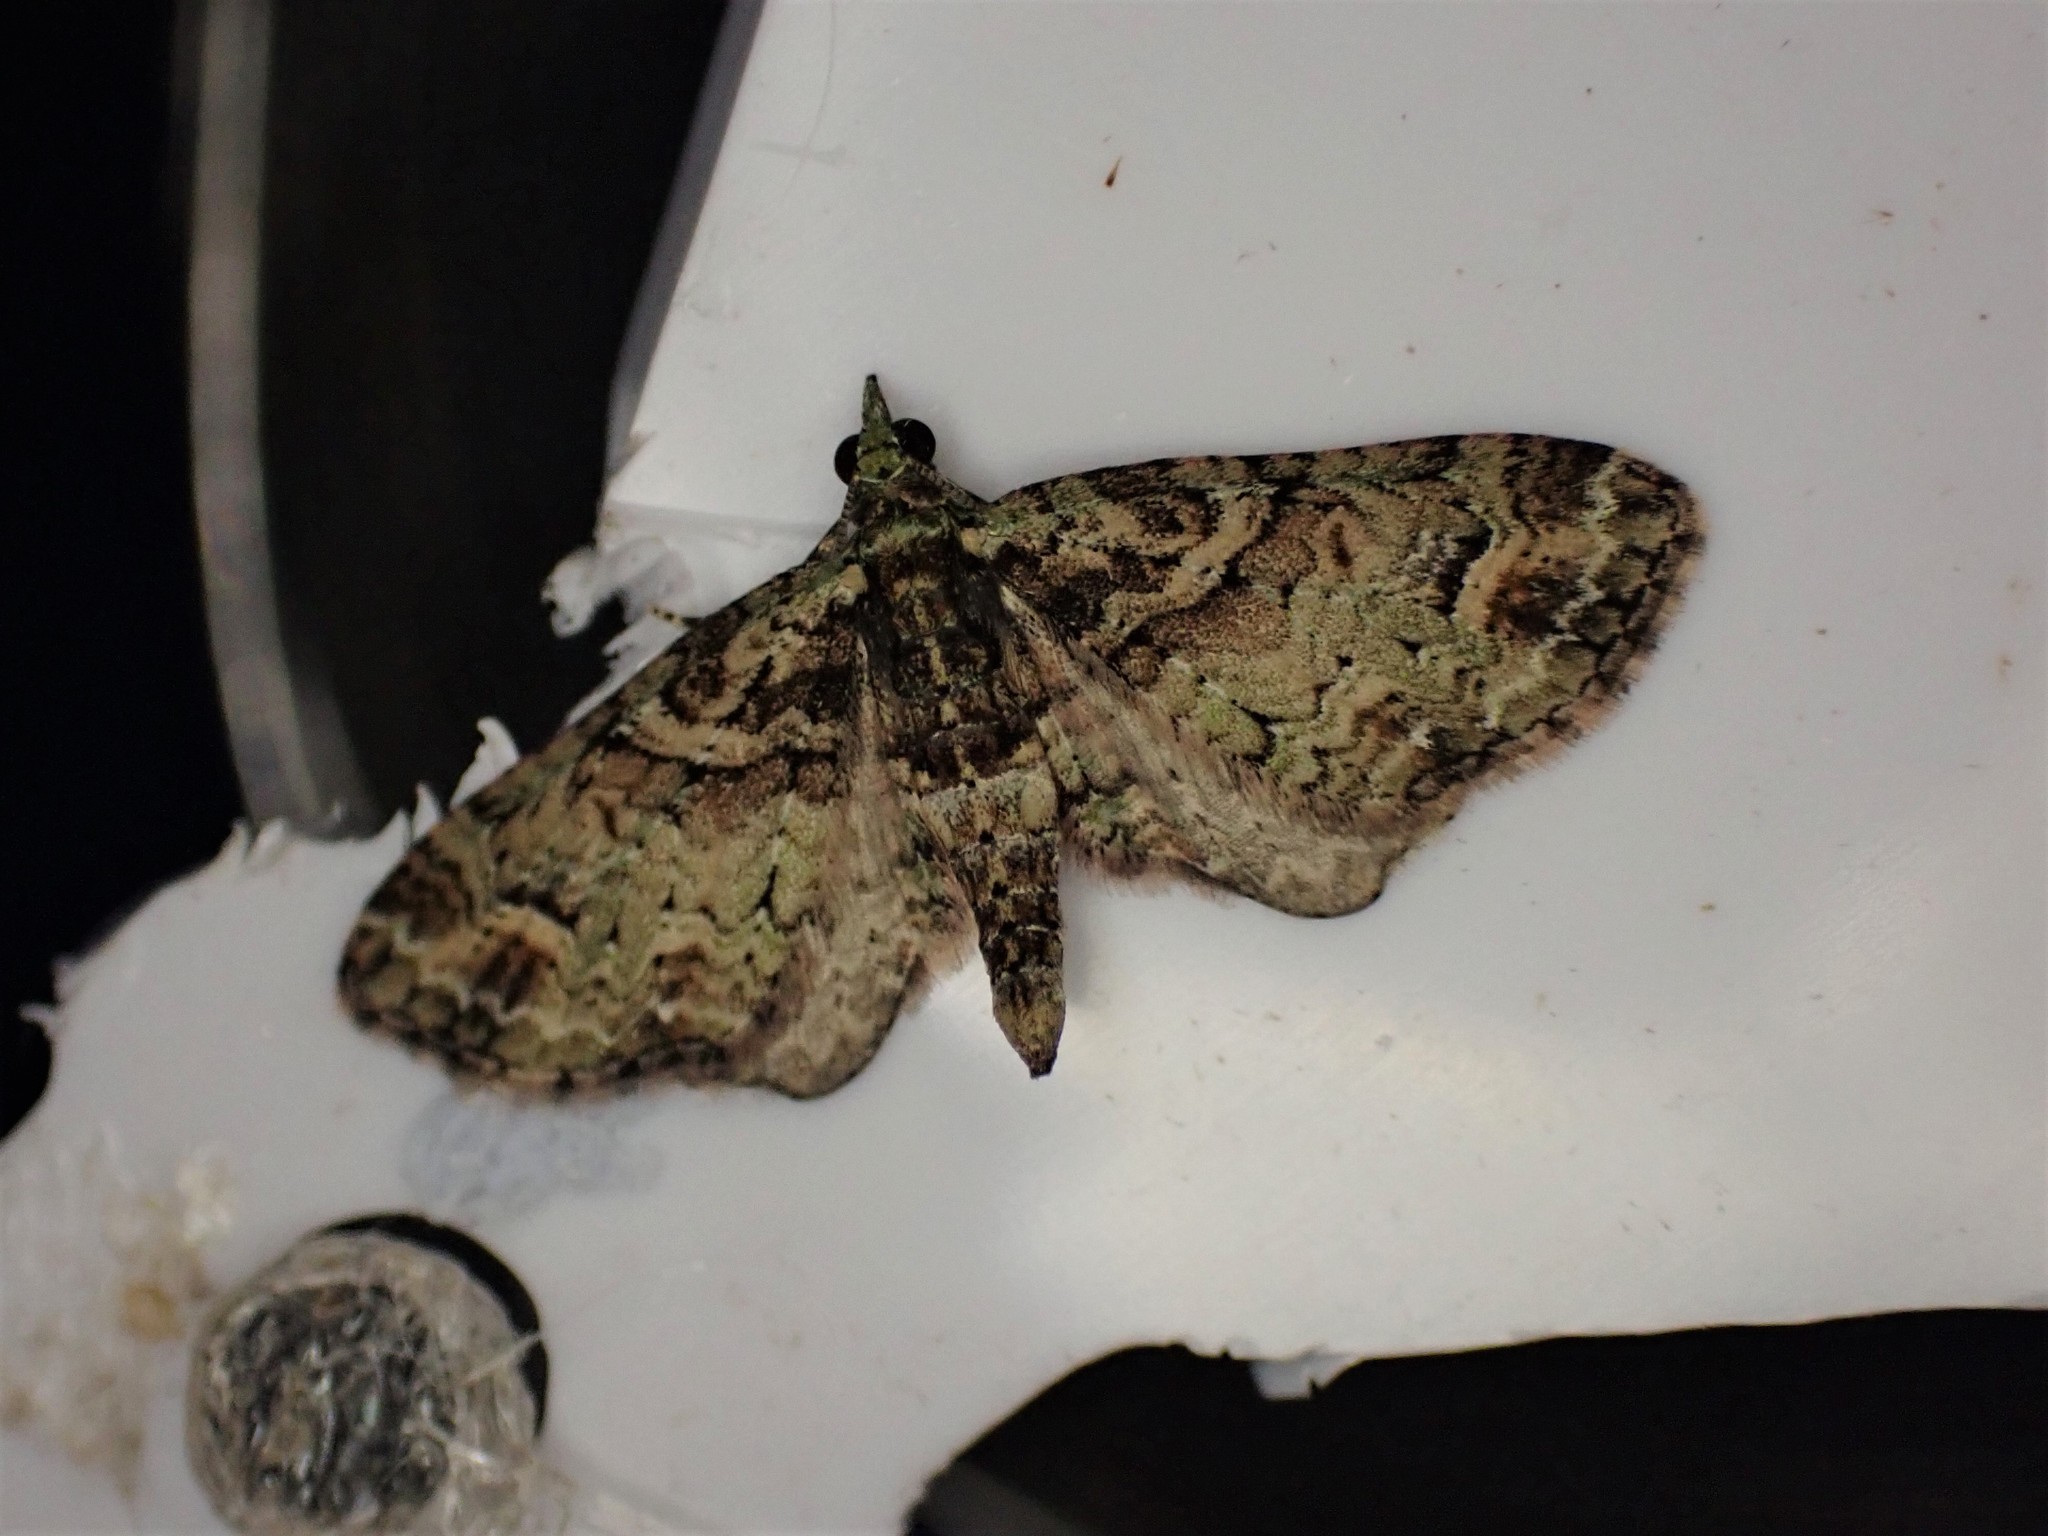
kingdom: Animalia
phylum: Arthropoda
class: Insecta
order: Lepidoptera
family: Geometridae
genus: Idaea
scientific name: Idaea mutanda
